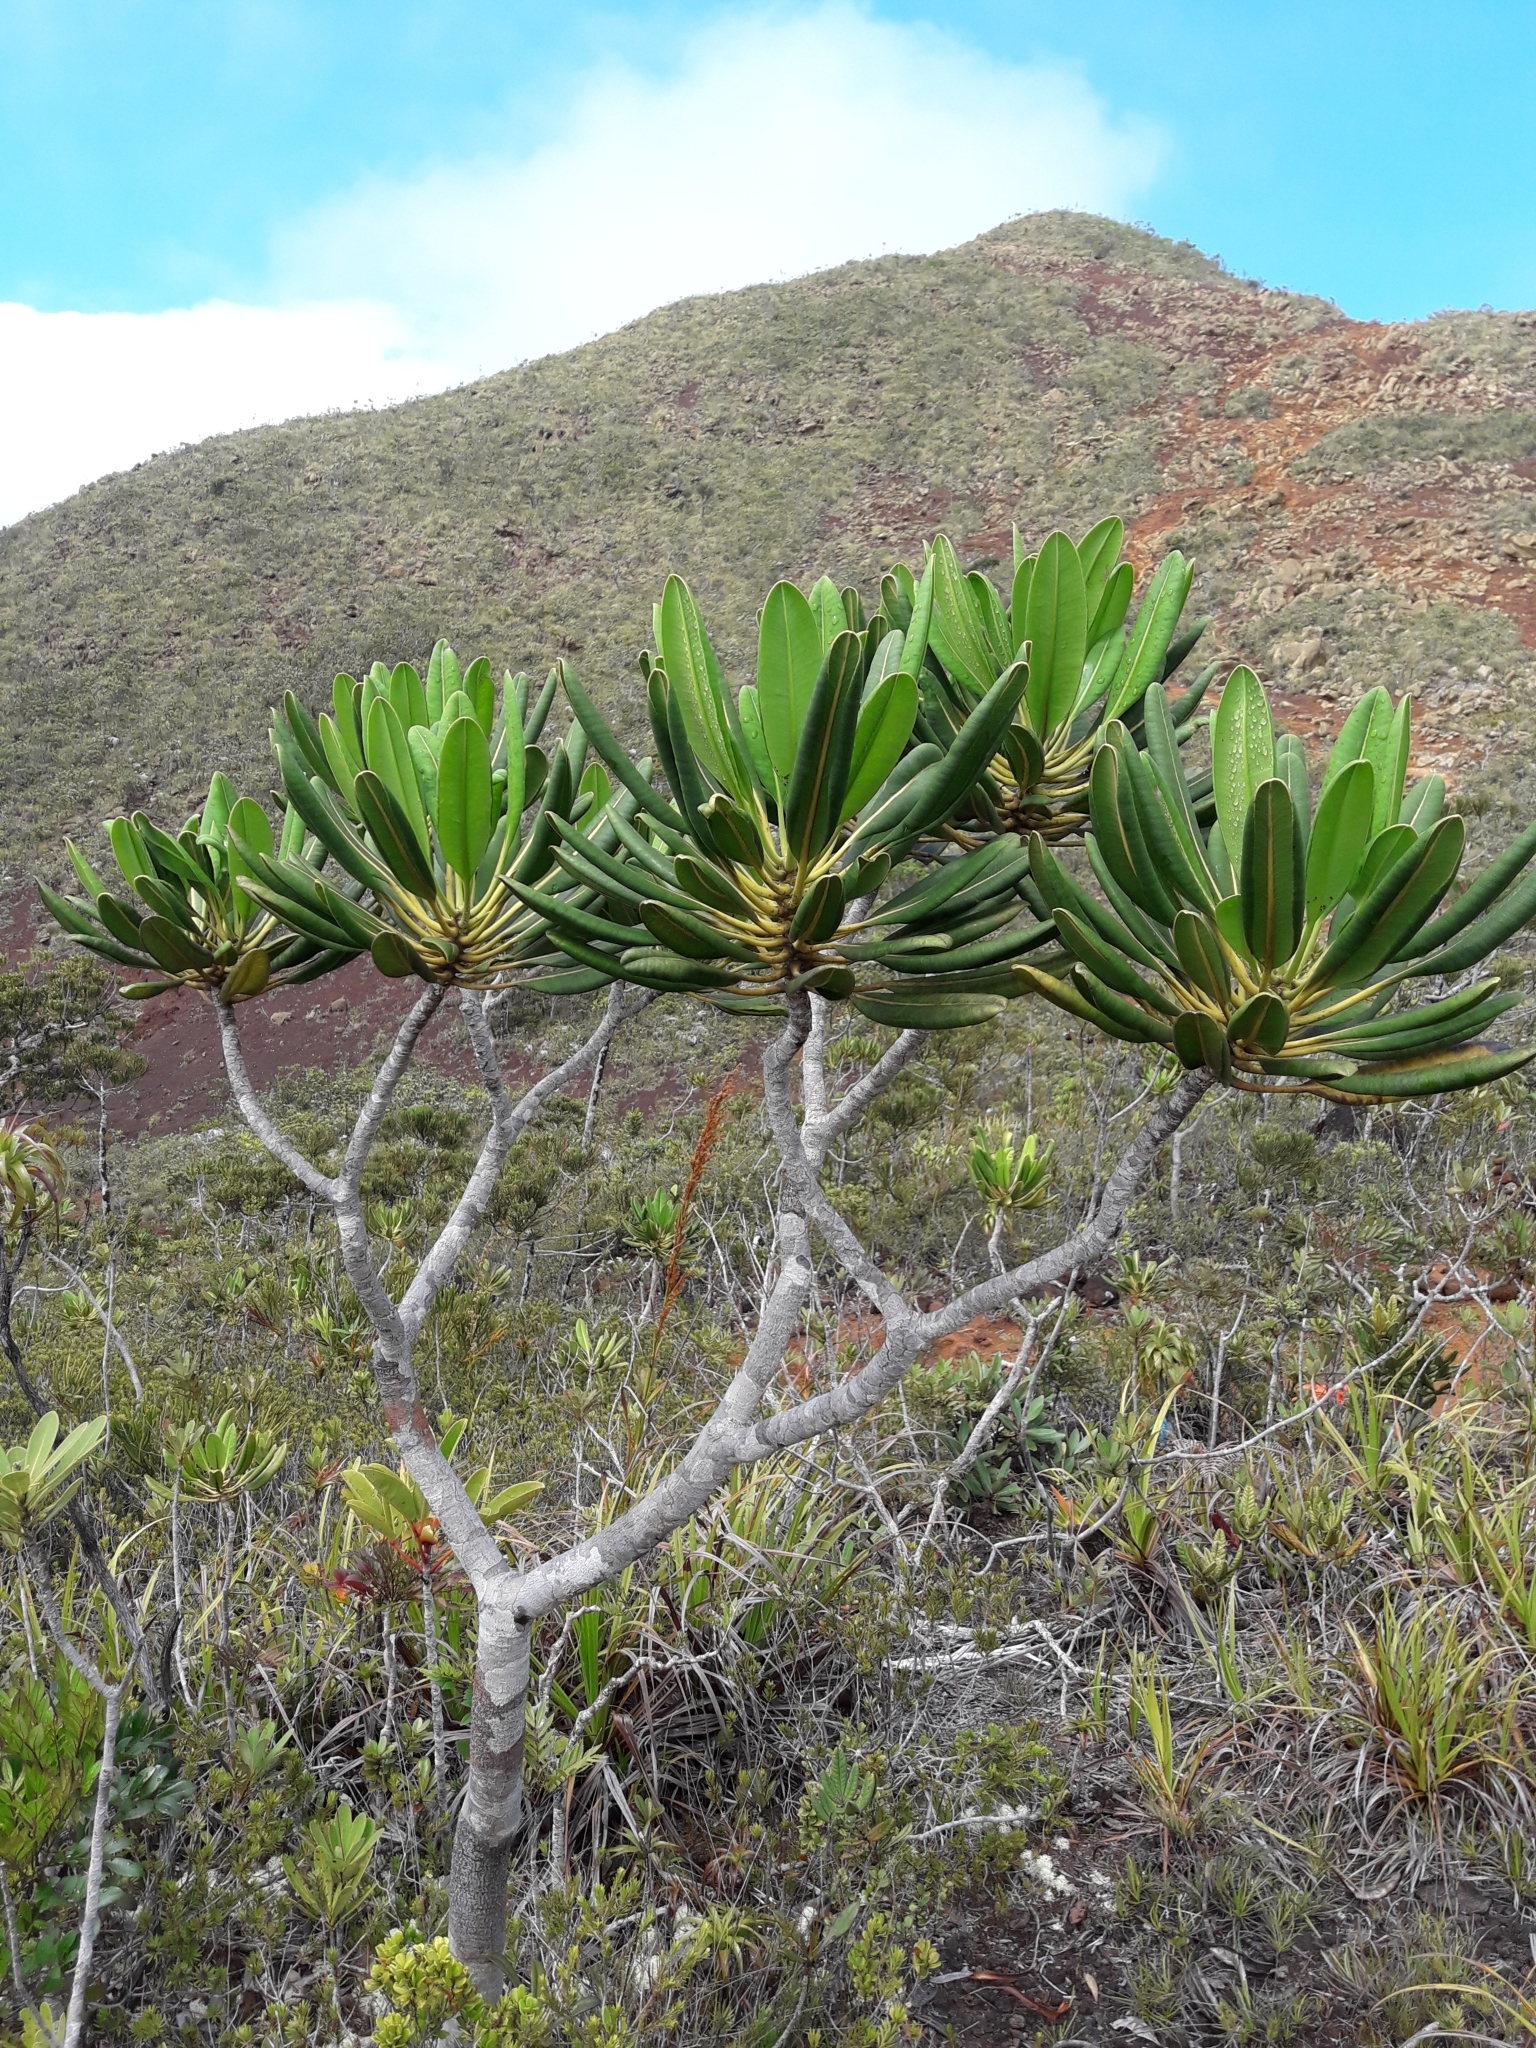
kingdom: Plantae
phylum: Tracheophyta
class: Magnoliopsida
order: Apiales
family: Myodocarpaceae
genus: Myodocarpus
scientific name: Myodocarpus crassifolius
